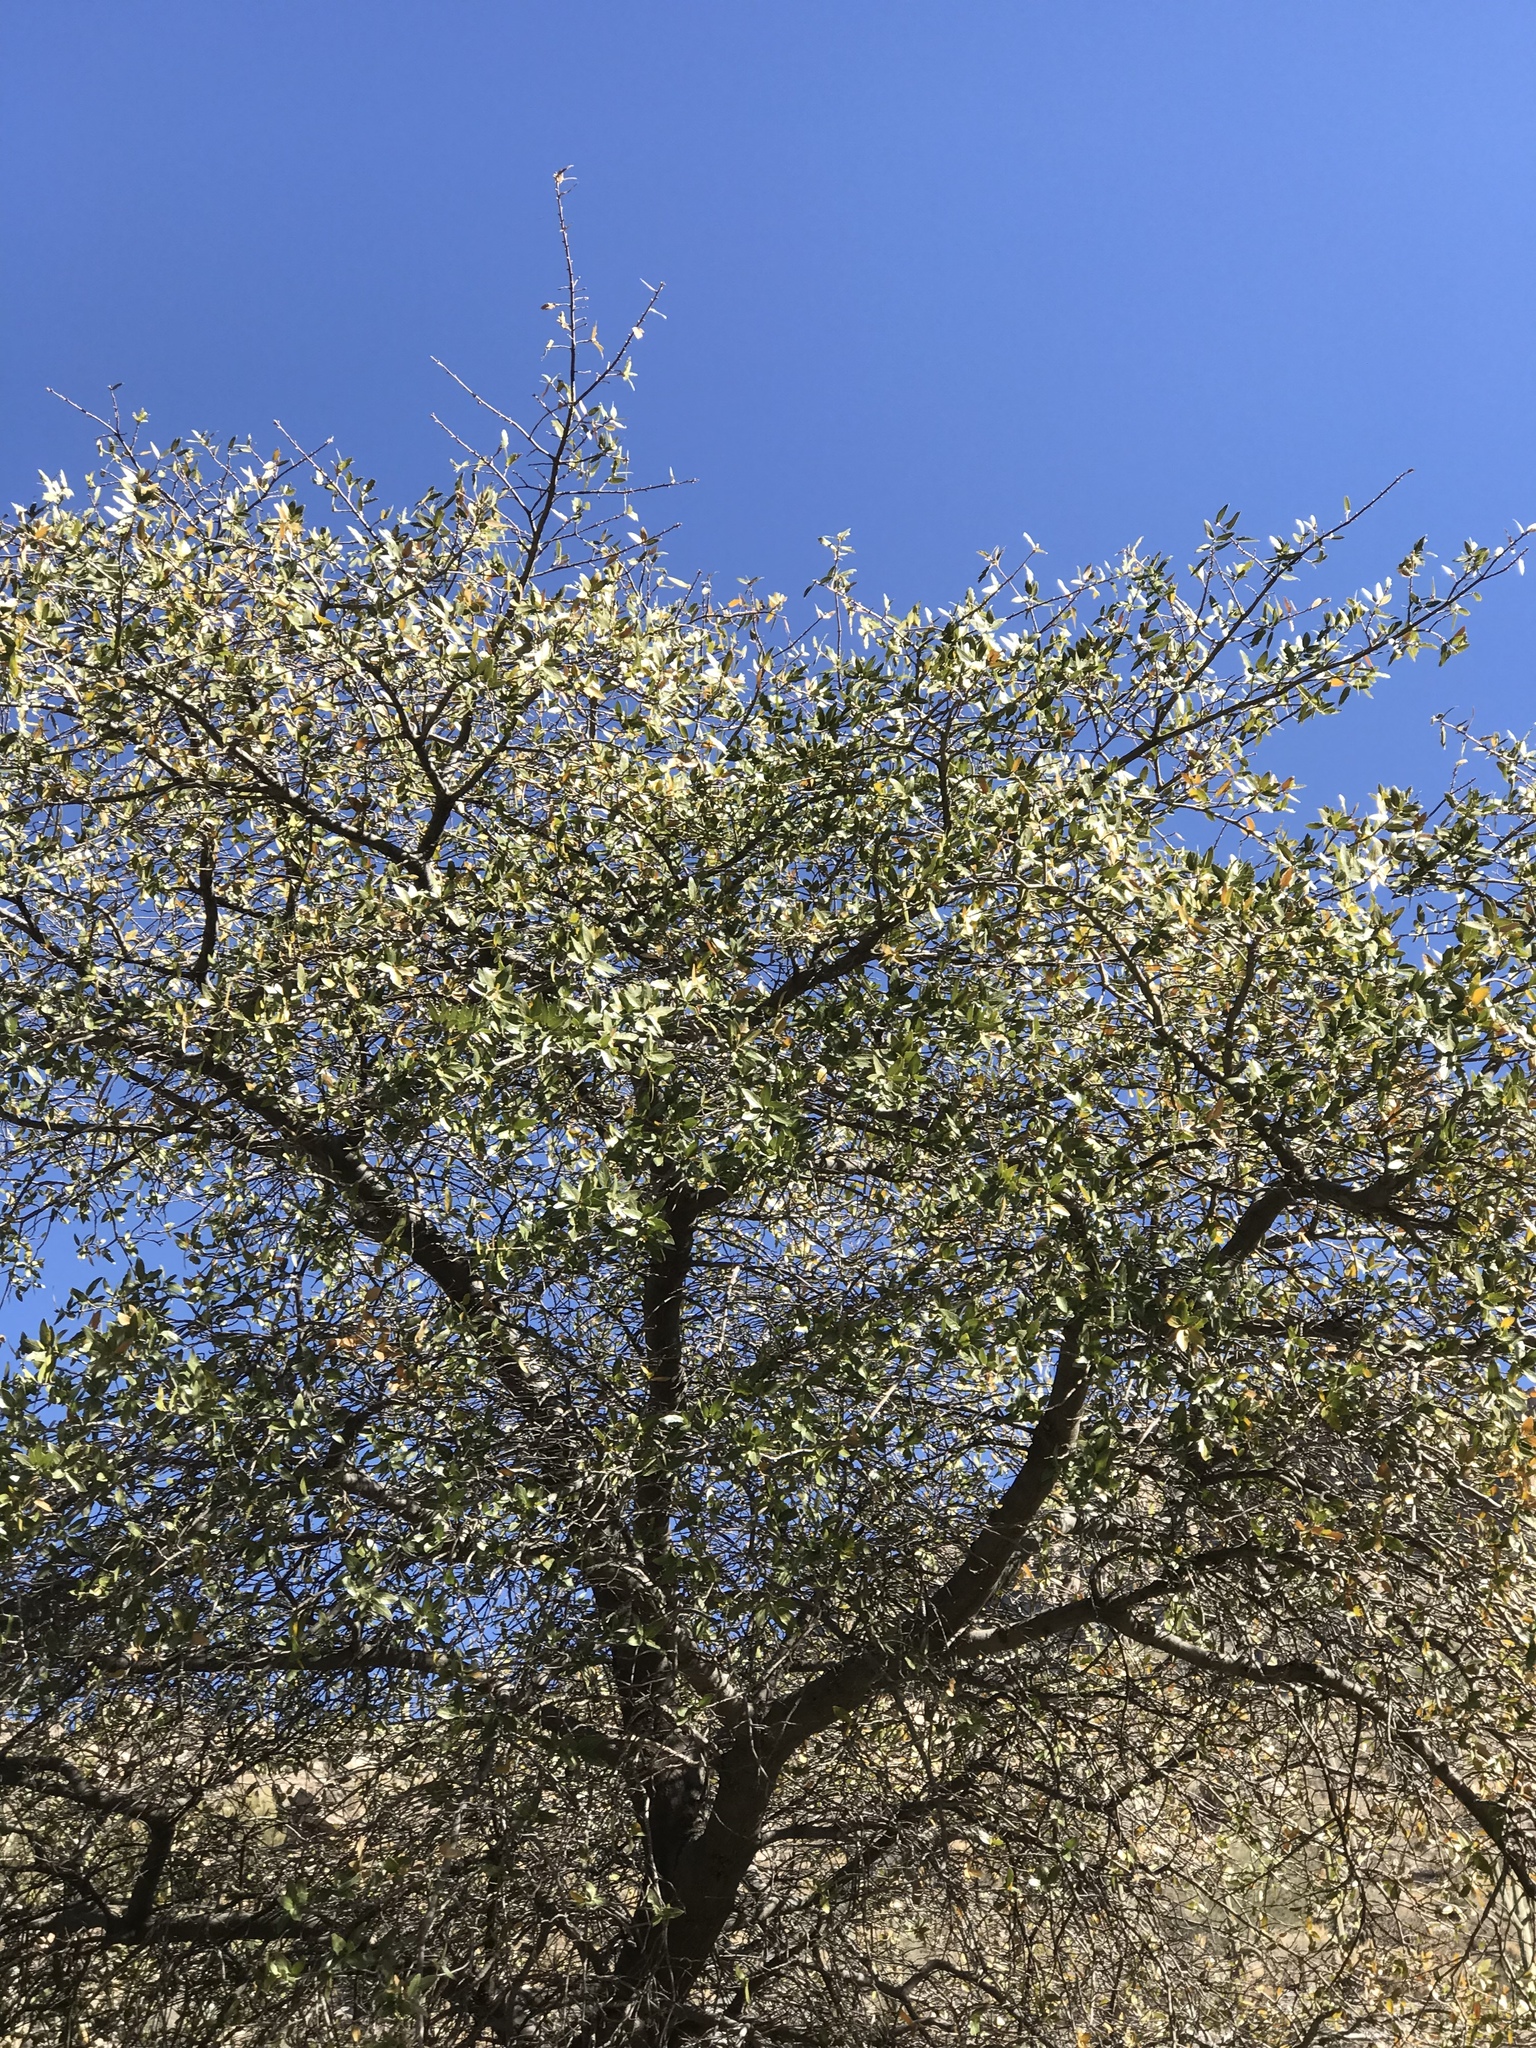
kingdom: Plantae
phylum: Tracheophyta
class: Magnoliopsida
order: Fagales
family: Fagaceae
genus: Quercus
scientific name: Quercus emoryi
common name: Emory oak
